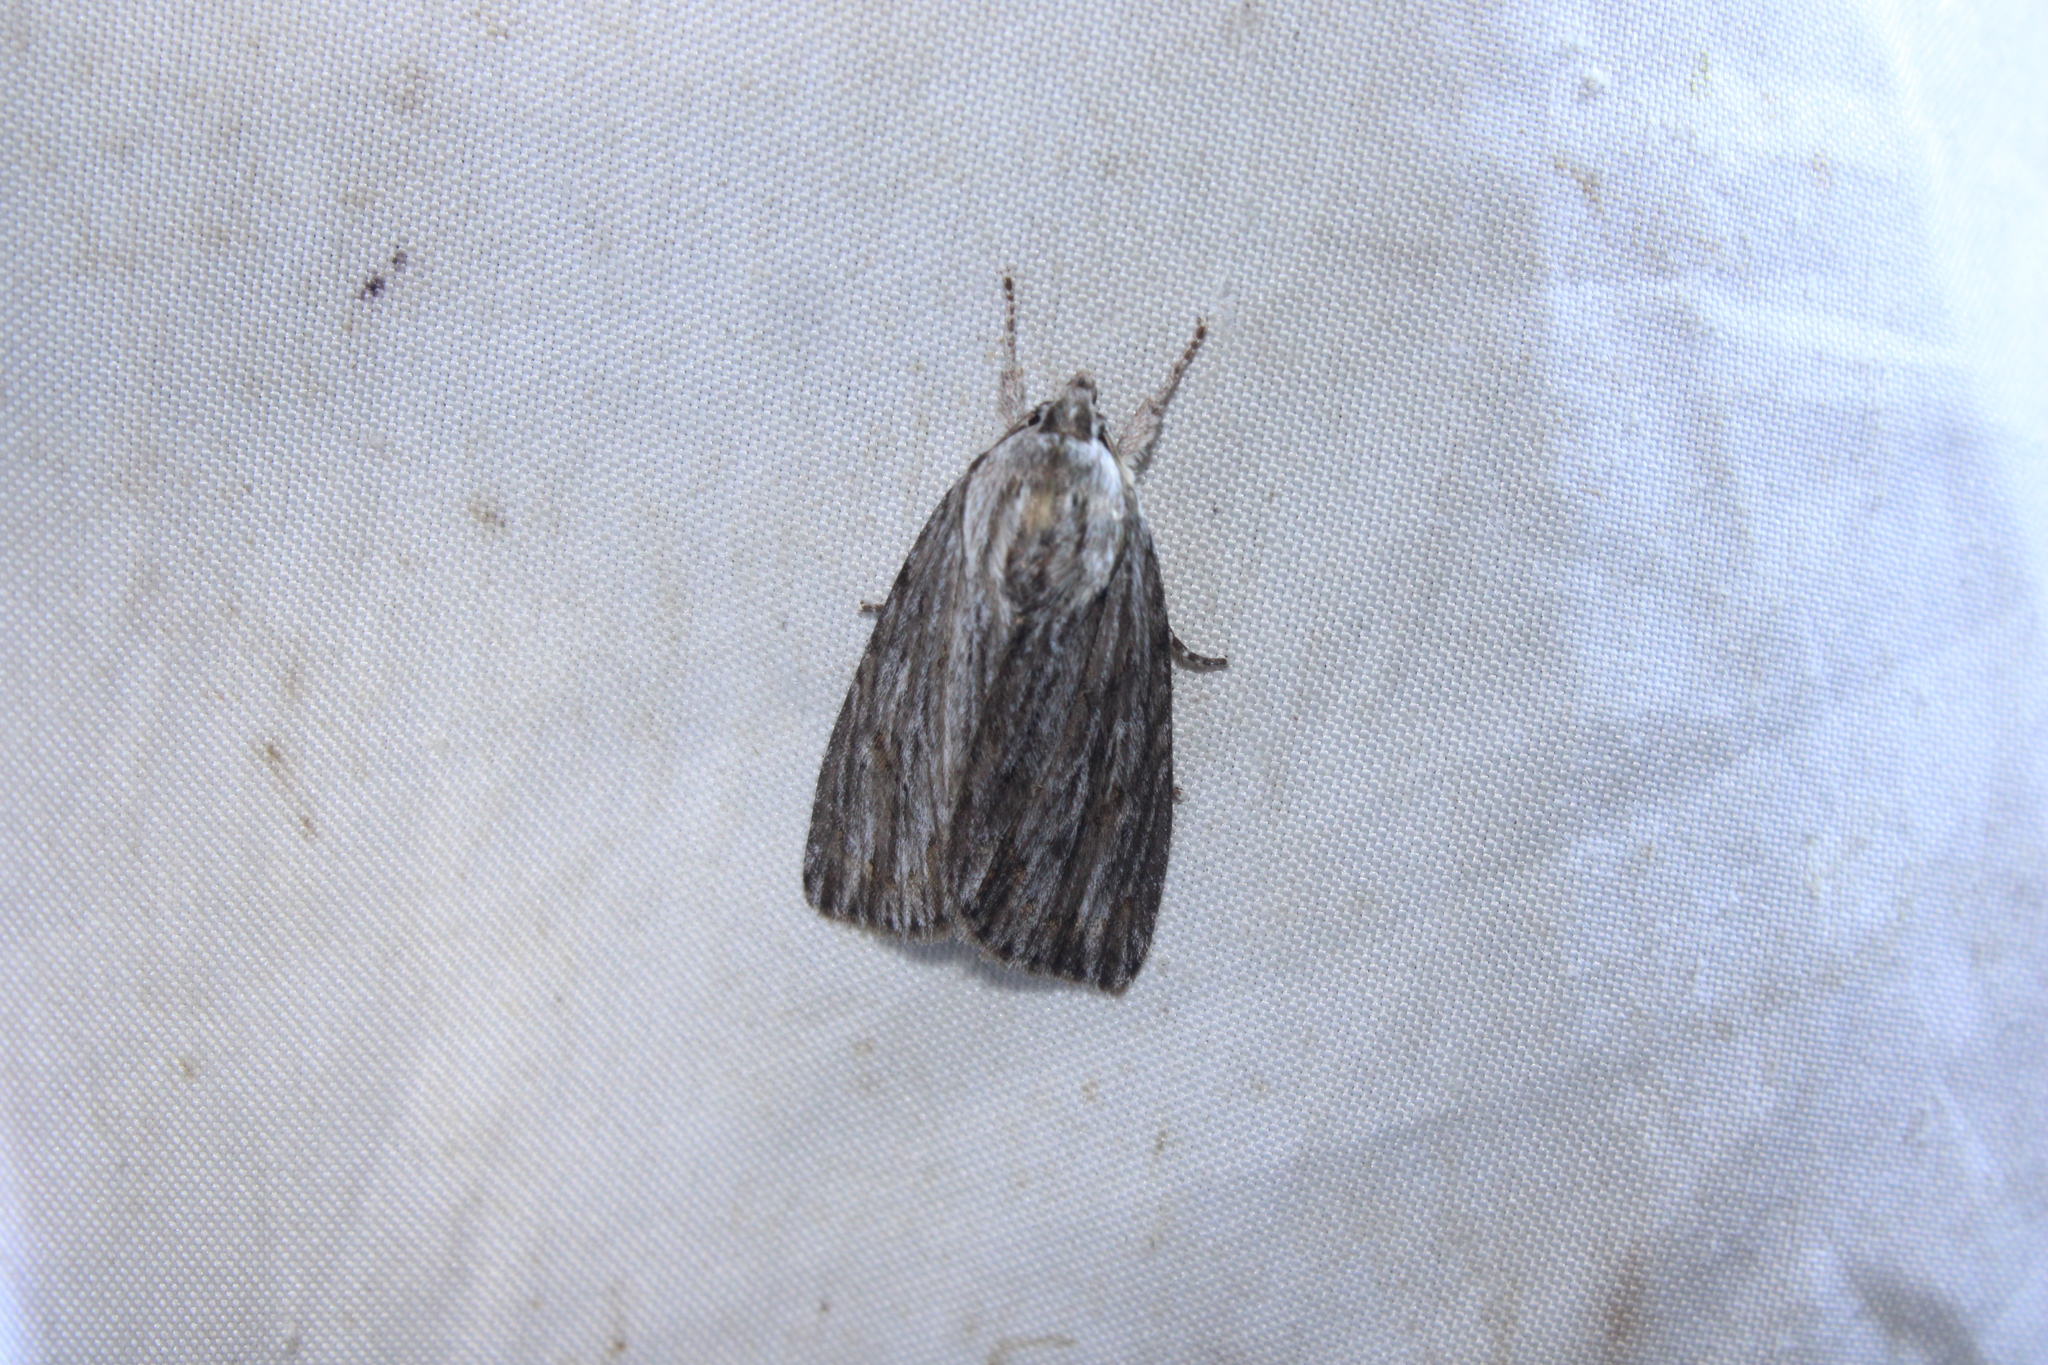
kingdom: Animalia
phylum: Arthropoda
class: Insecta
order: Lepidoptera
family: Noctuidae
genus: Acronicta
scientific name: Acronicta lithospila
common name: Streaked dagger
